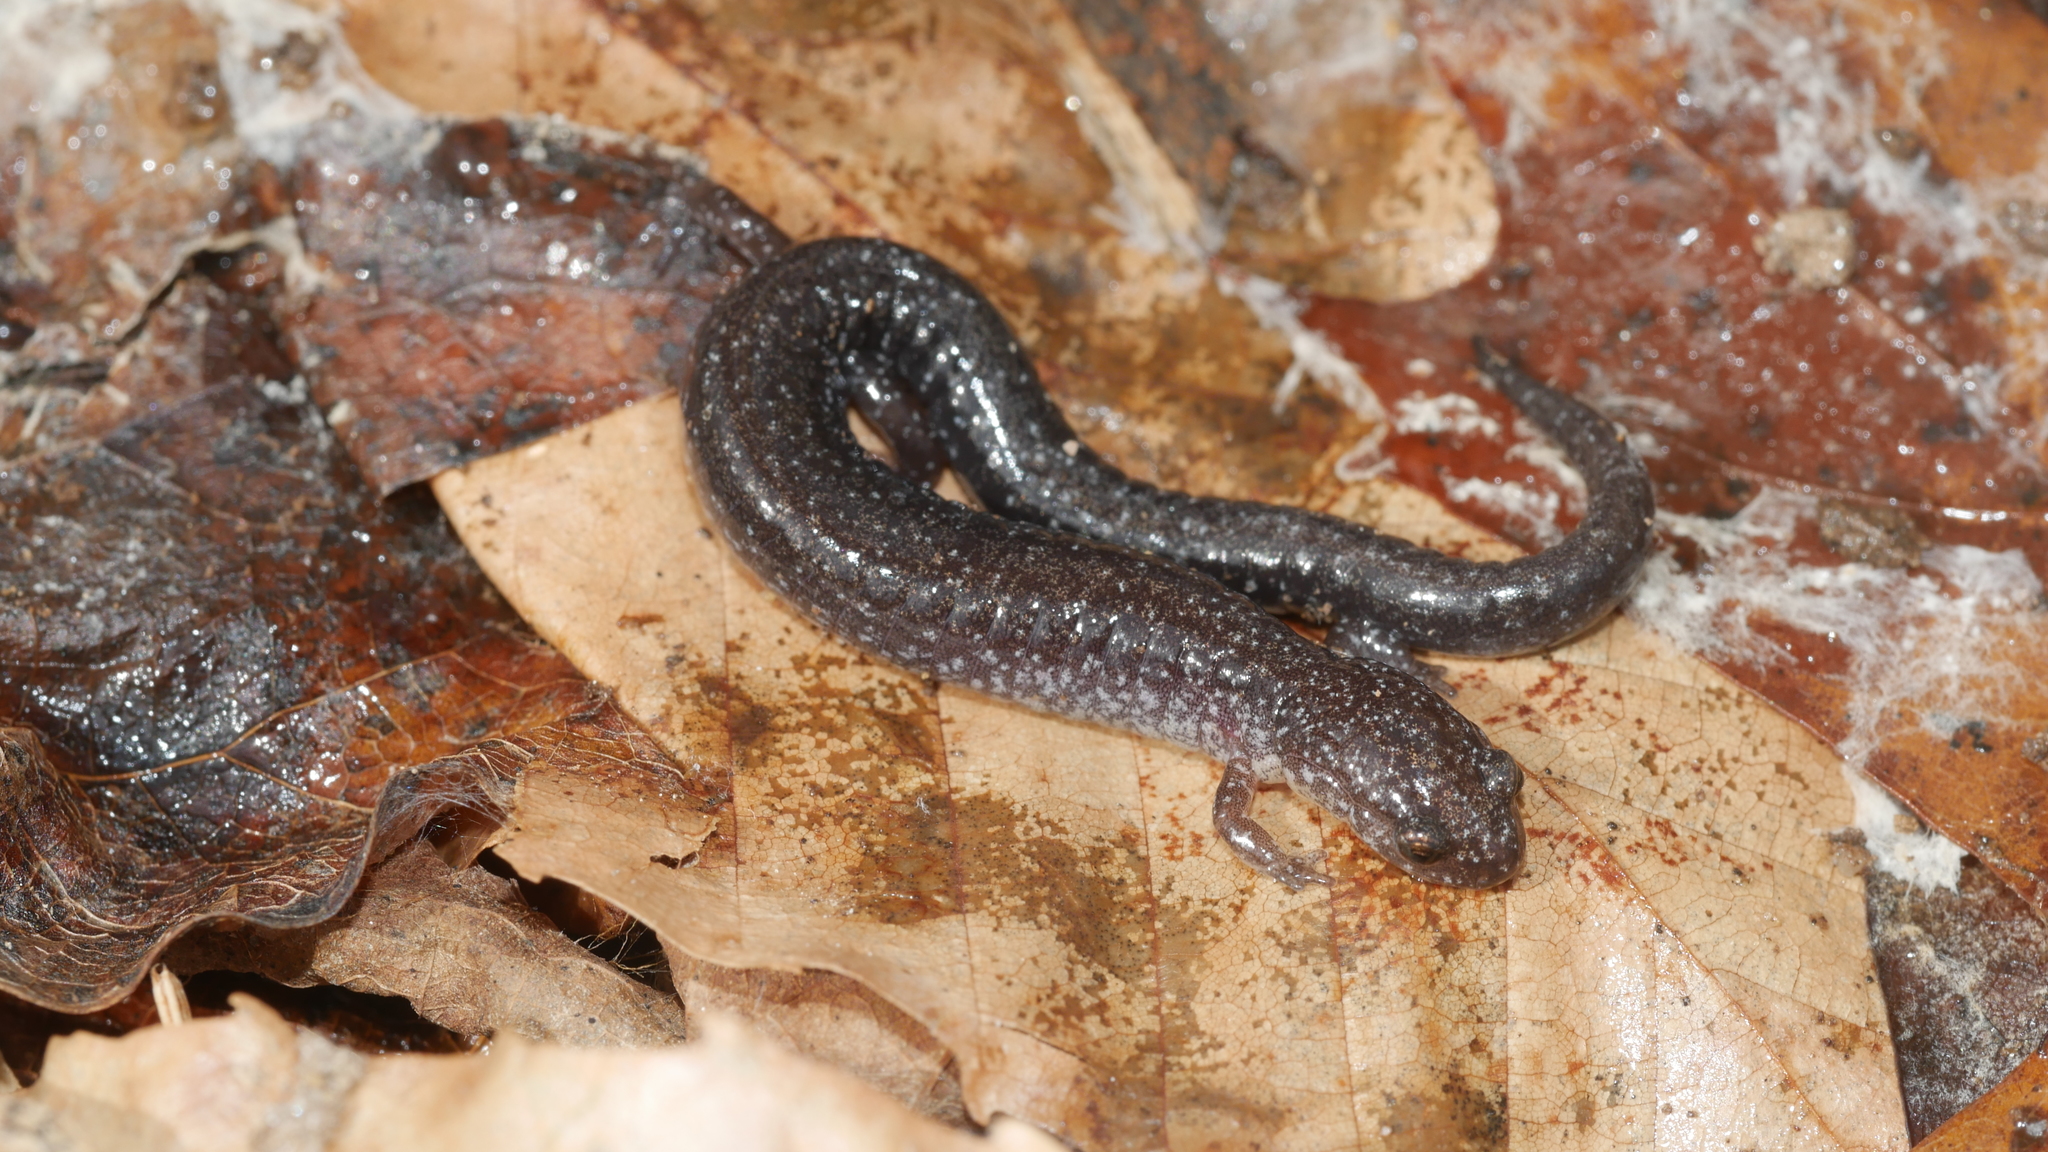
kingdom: Animalia
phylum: Chordata
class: Amphibia
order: Caudata
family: Plethodontidae
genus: Plethodon
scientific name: Plethodon cinereus
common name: Redback salamander
